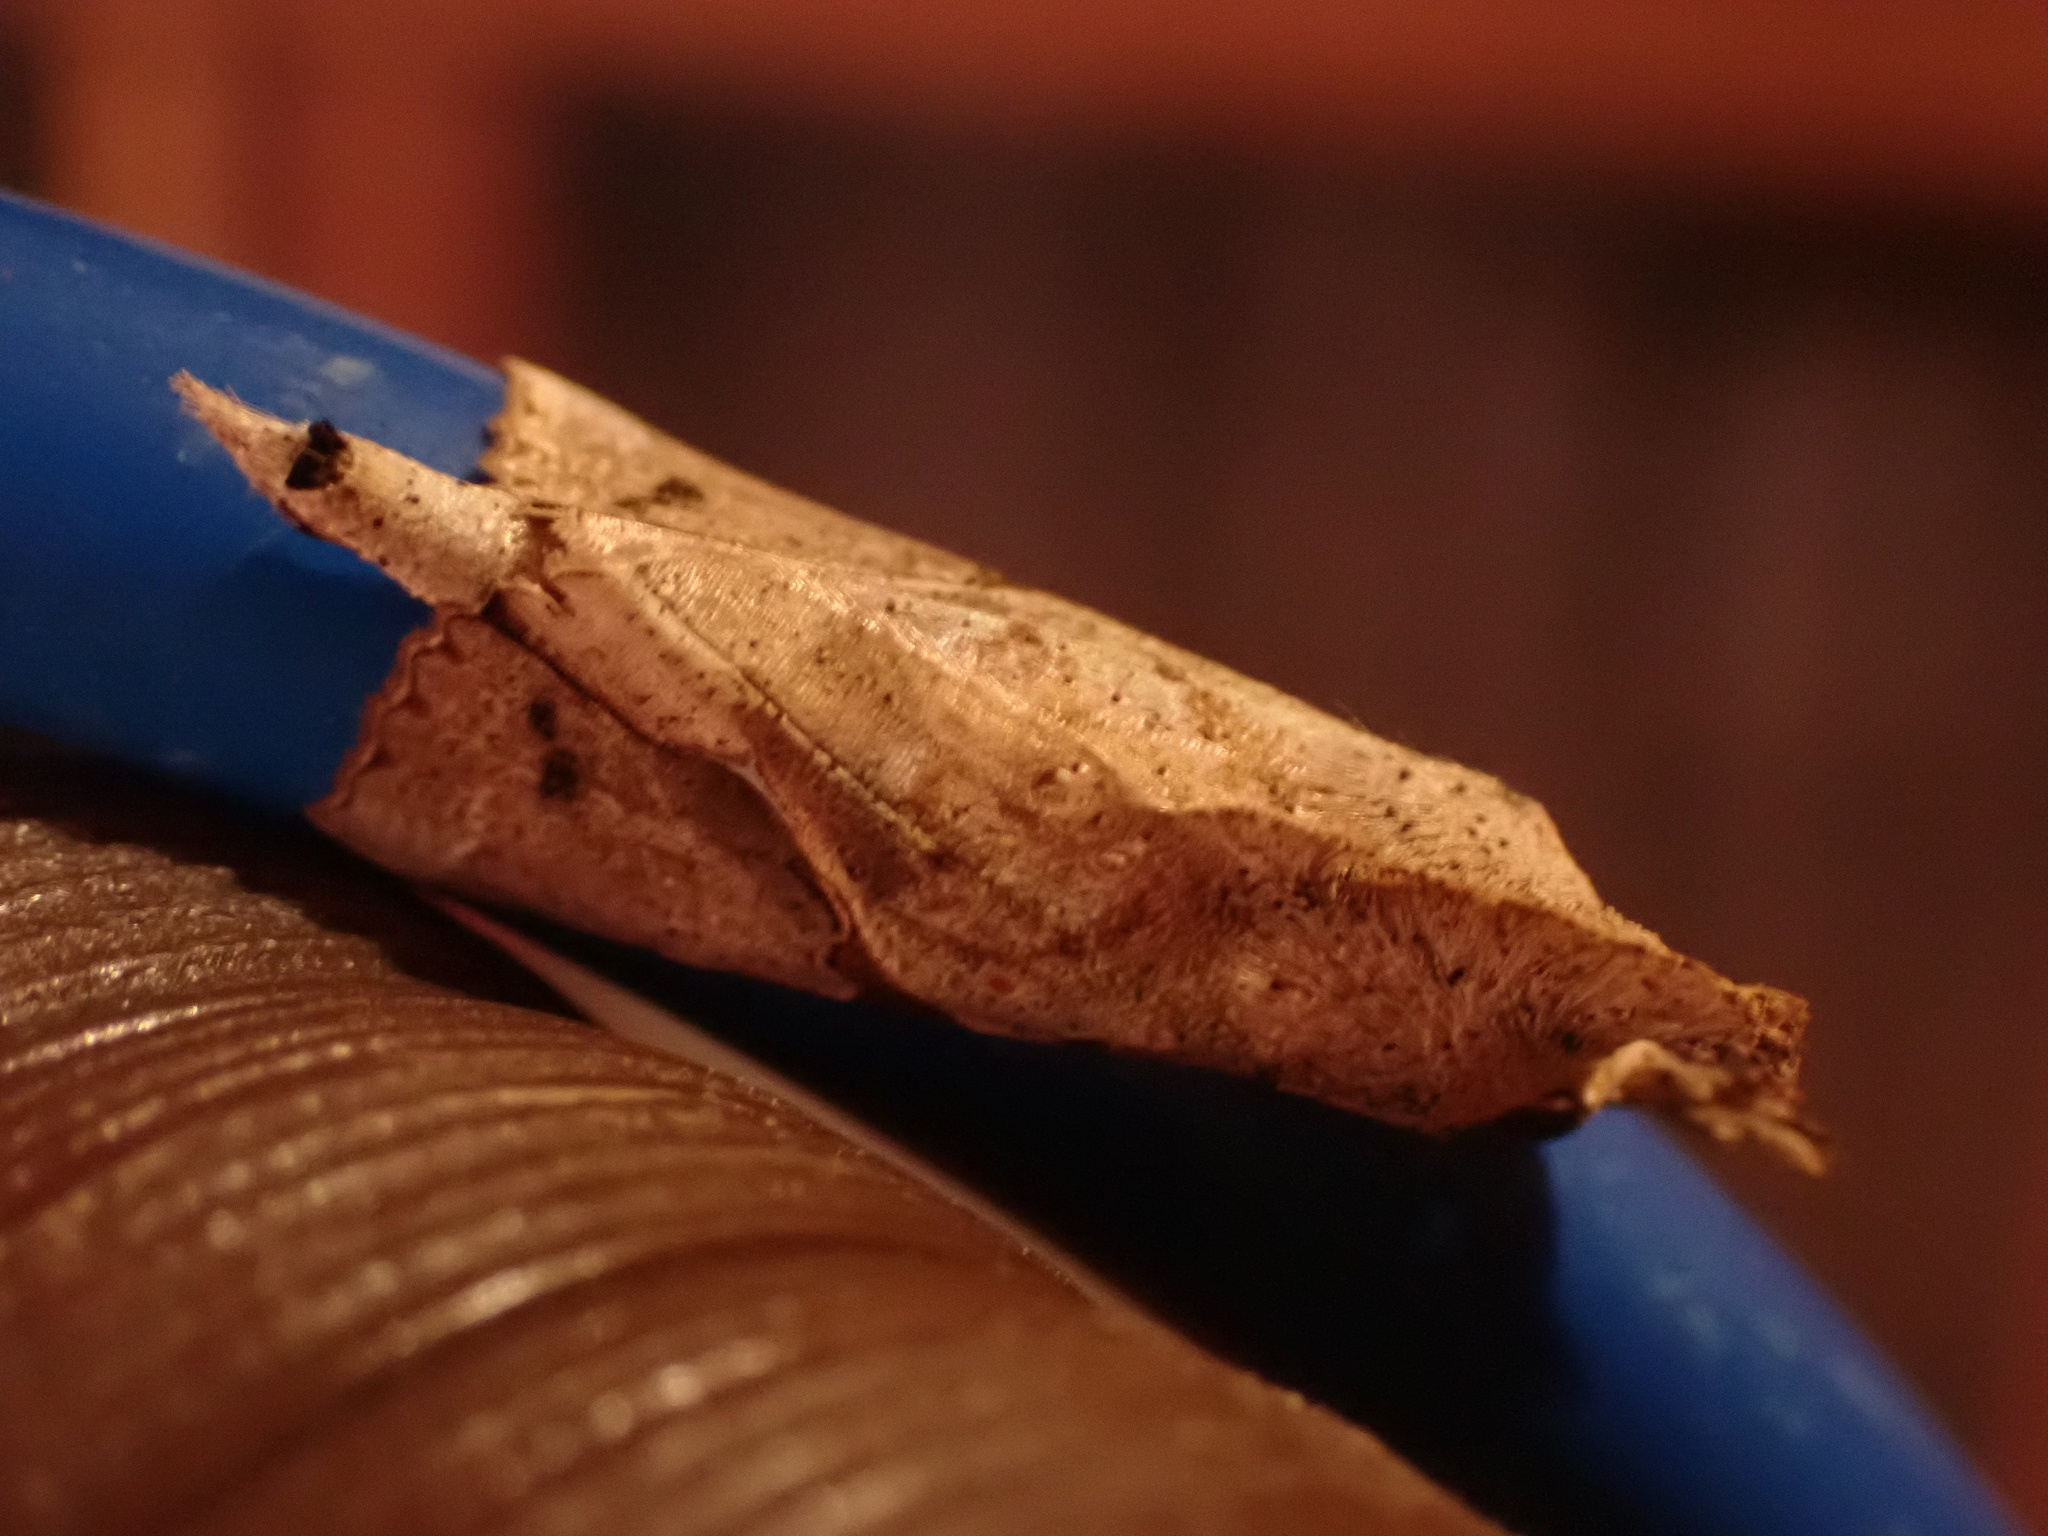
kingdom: Animalia
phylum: Arthropoda
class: Insecta
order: Lepidoptera
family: Erebidae
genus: Meliaba
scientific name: Meliaba pelopsalis
